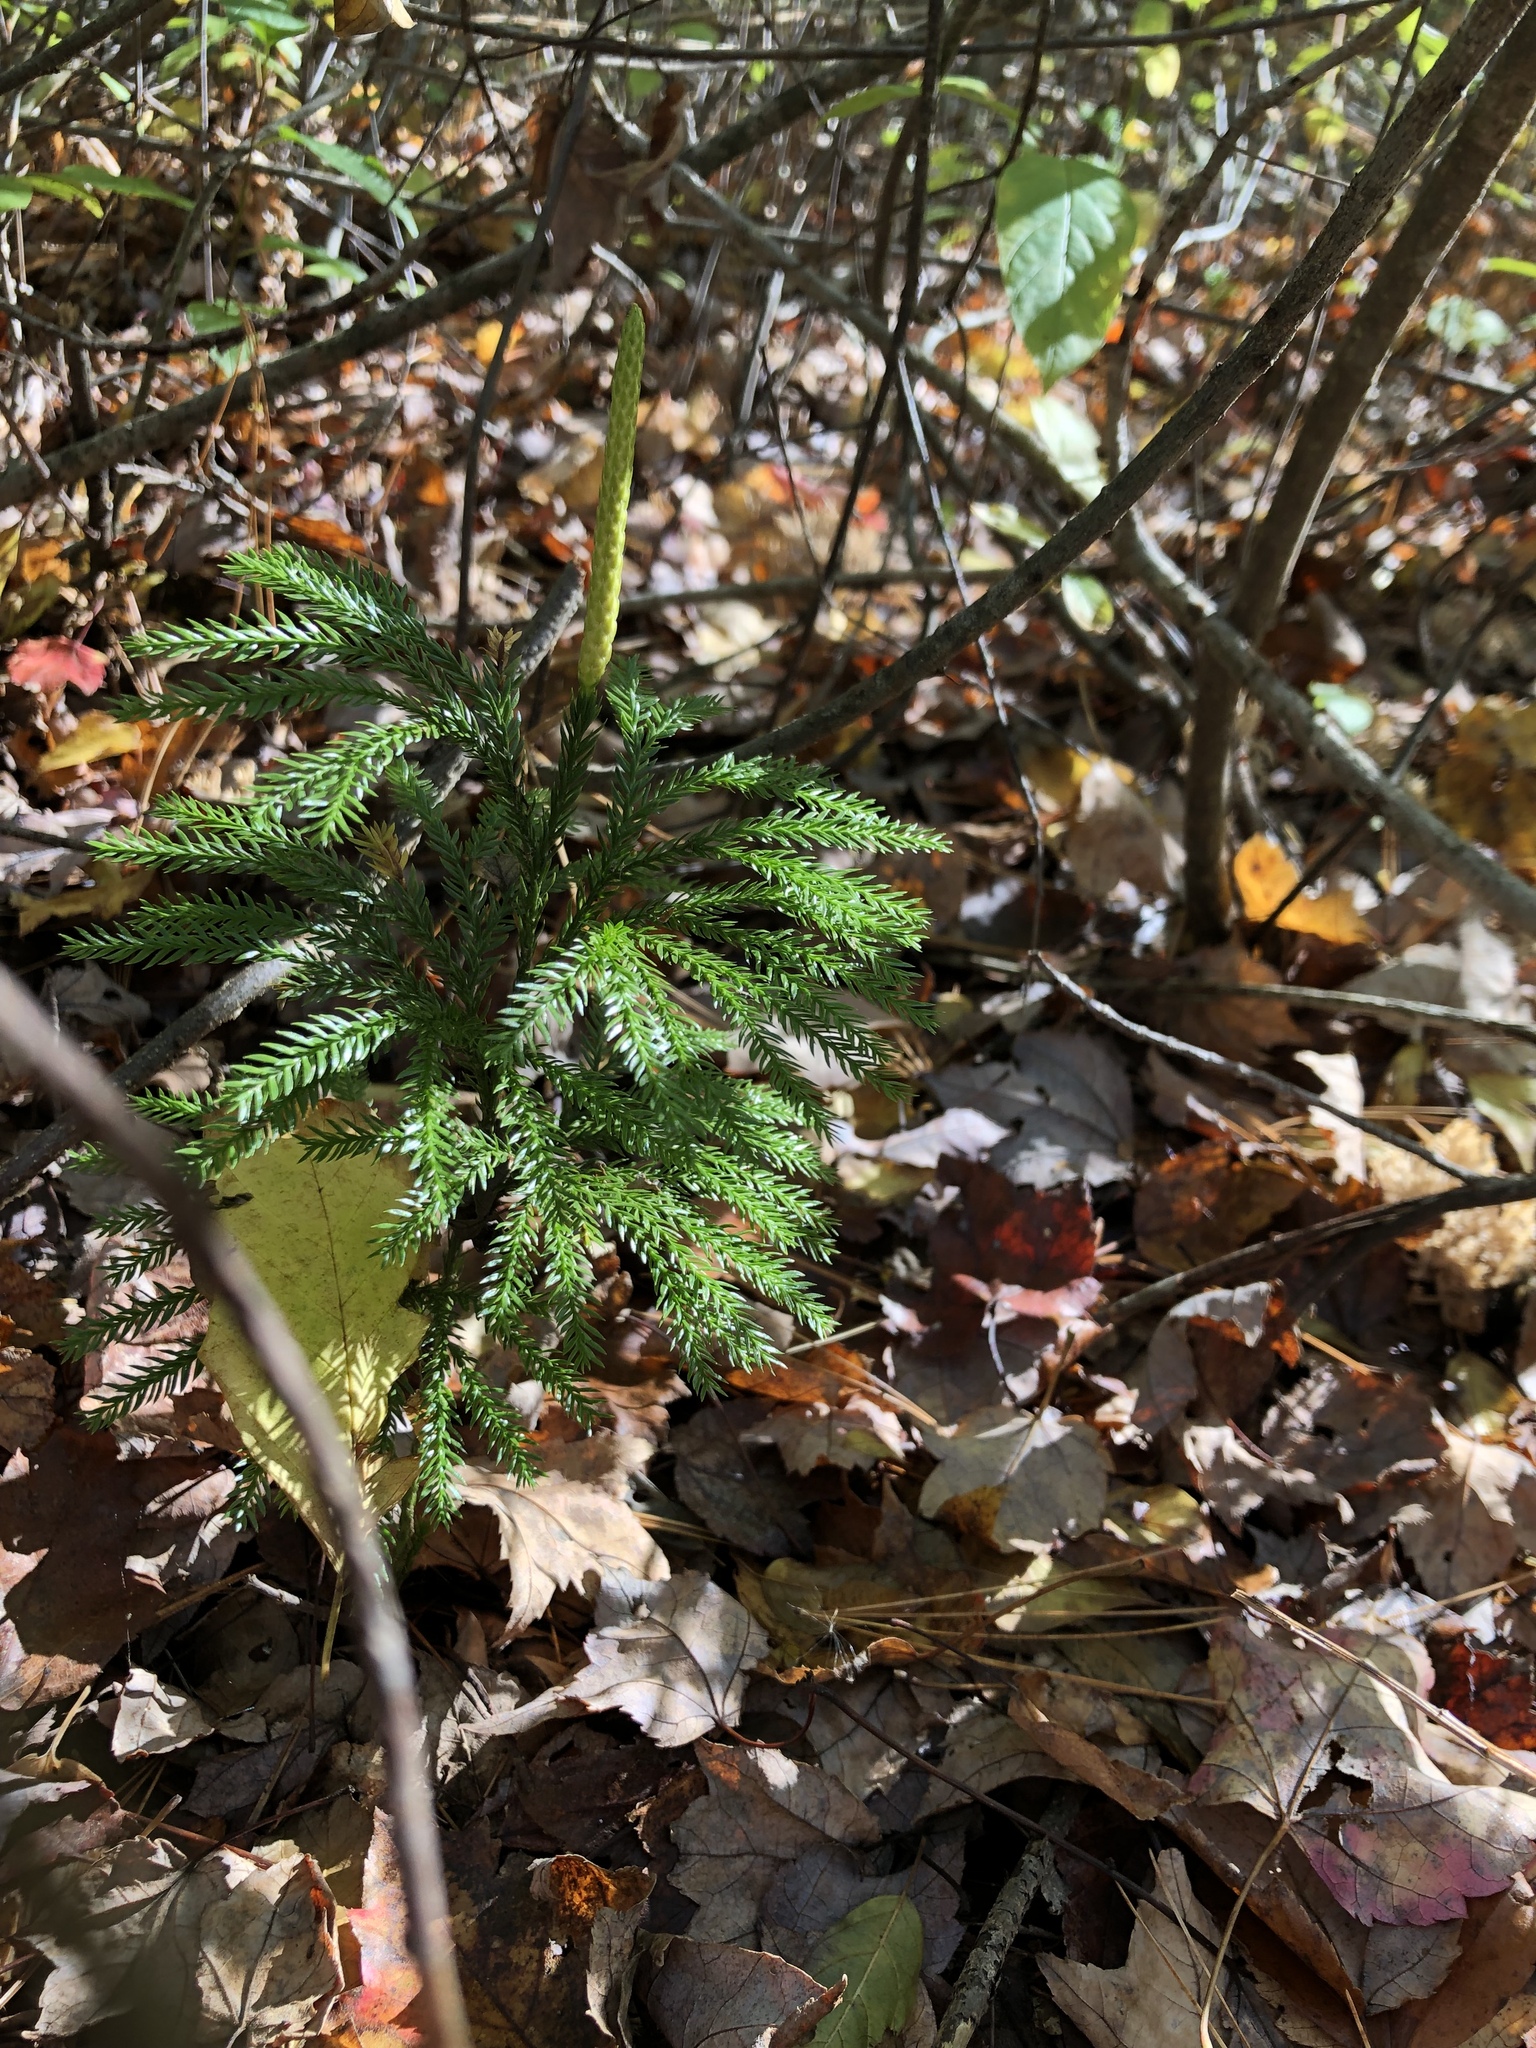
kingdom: Plantae
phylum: Tracheophyta
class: Lycopodiopsida
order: Lycopodiales
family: Lycopodiaceae
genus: Dendrolycopodium
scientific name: Dendrolycopodium obscurum
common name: Common ground-pine
